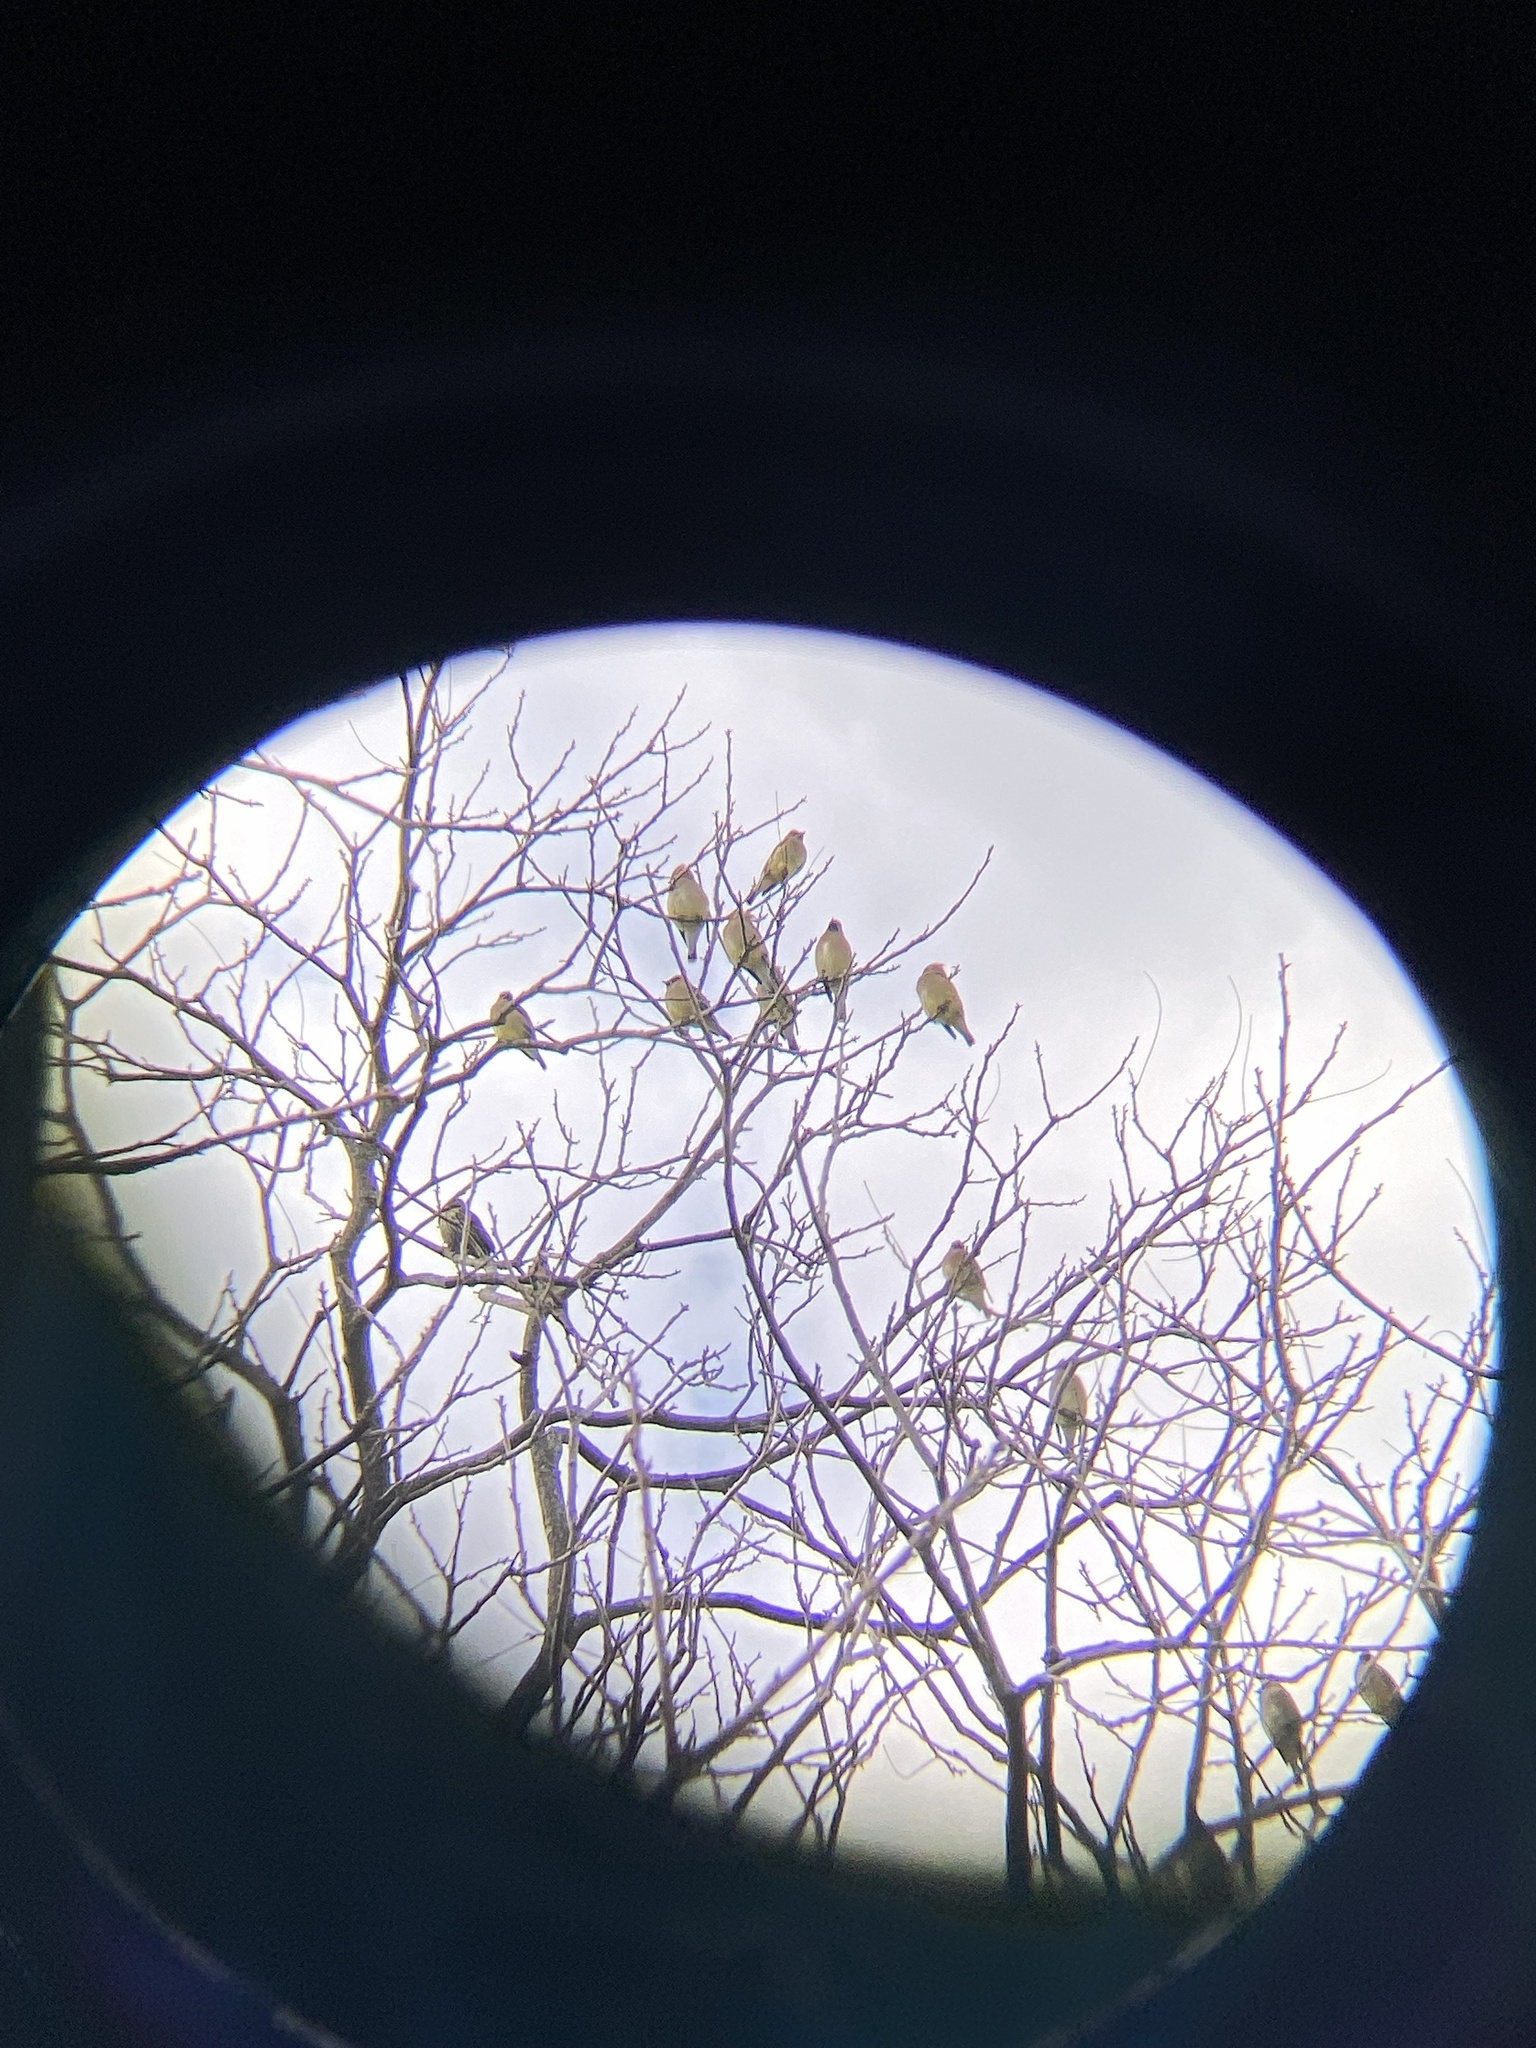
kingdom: Animalia
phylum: Chordata
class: Aves
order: Passeriformes
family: Bombycillidae
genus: Bombycilla
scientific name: Bombycilla cedrorum
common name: Cedar waxwing
